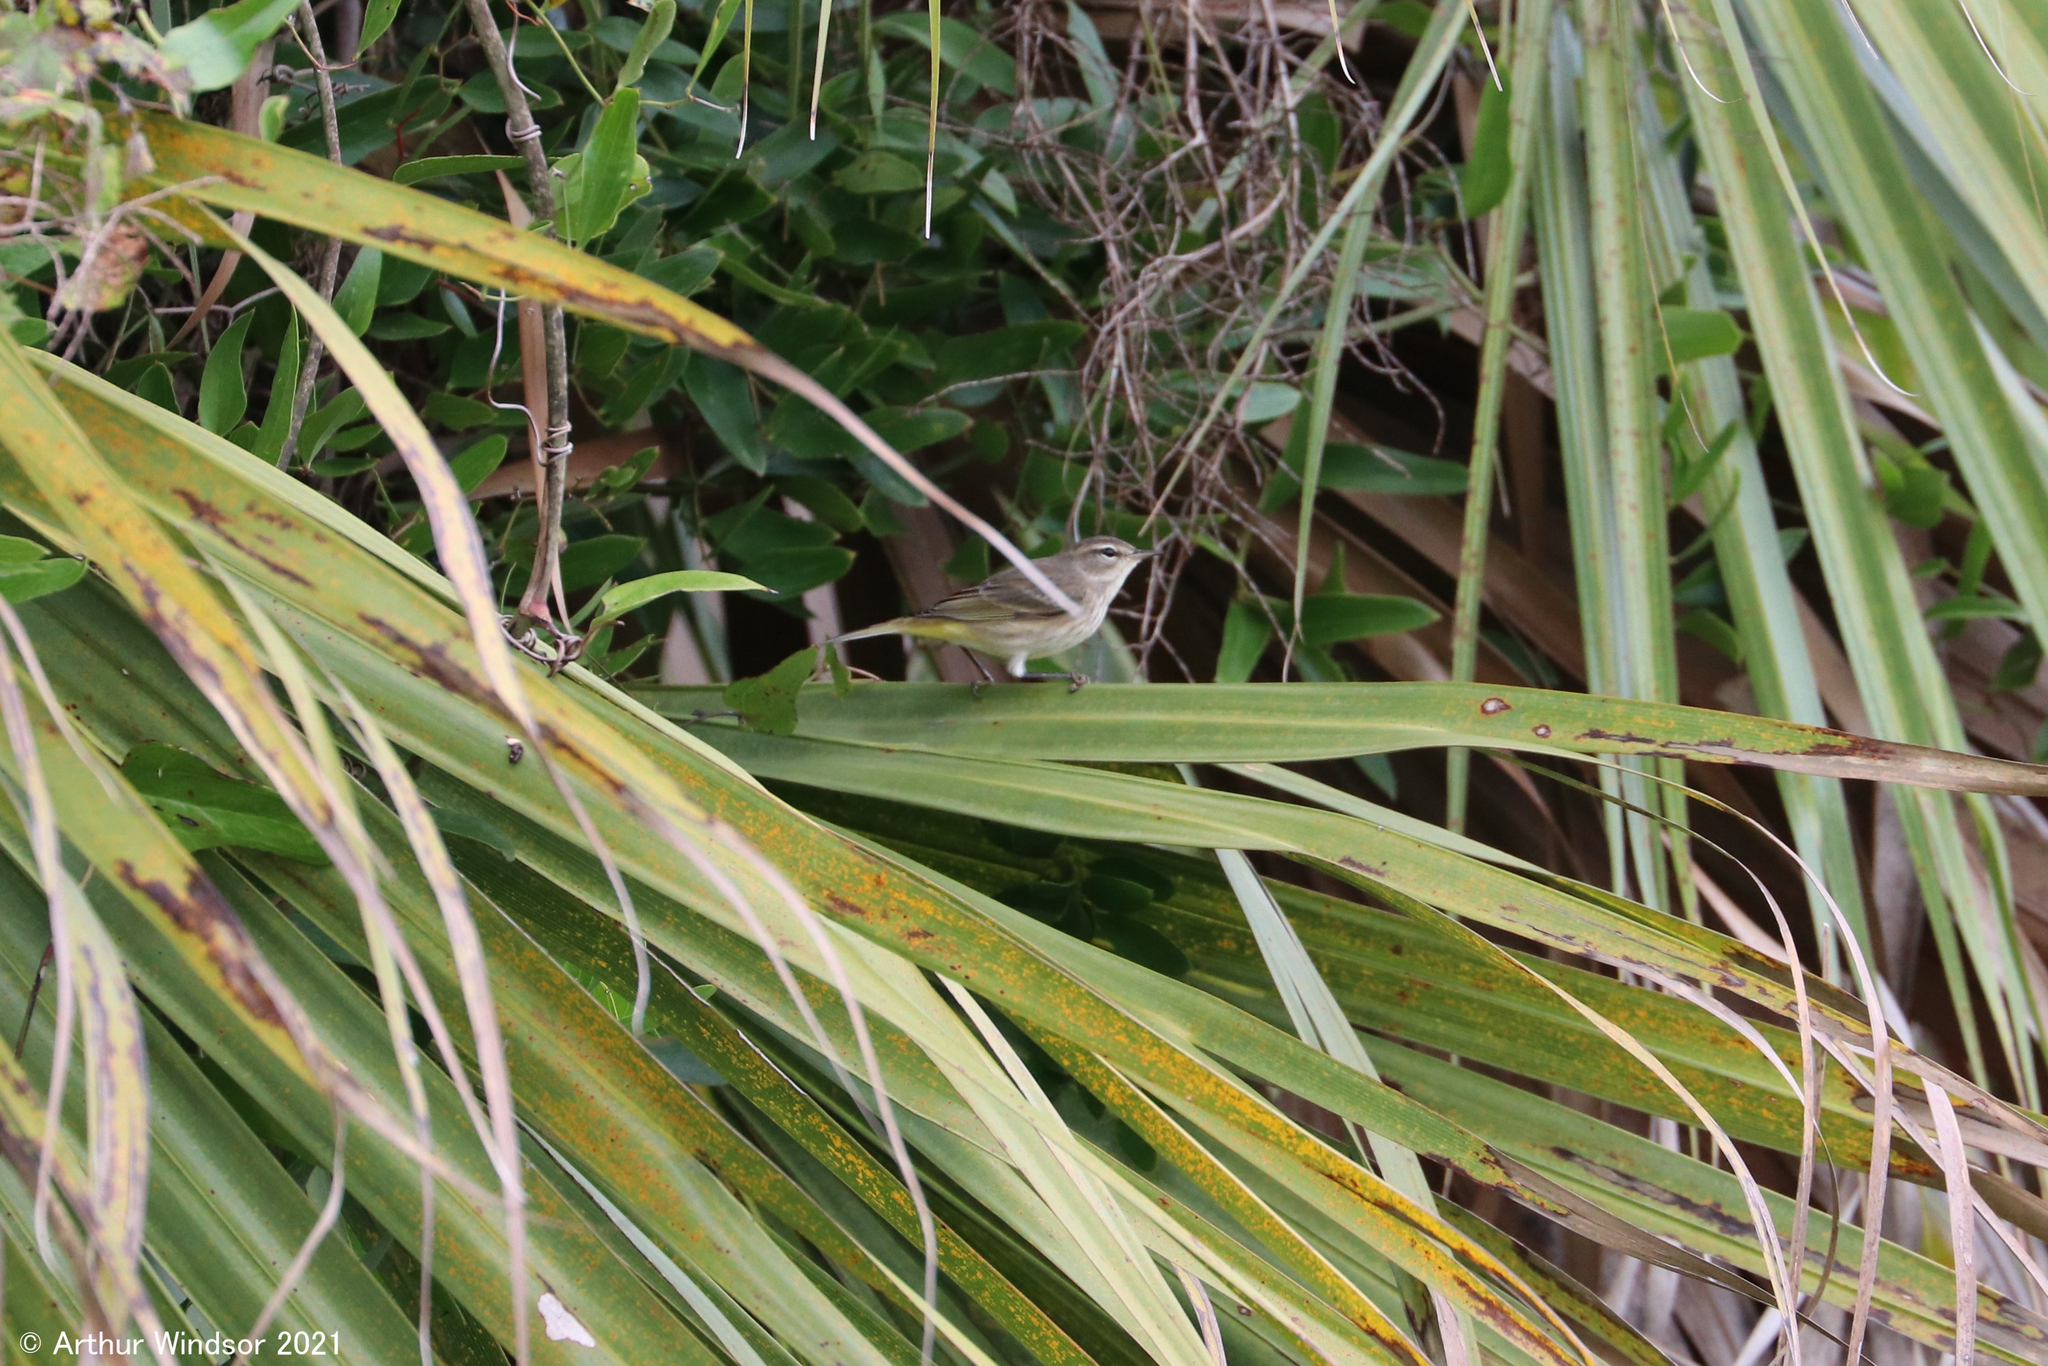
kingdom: Animalia
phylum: Chordata
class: Aves
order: Passeriformes
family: Parulidae
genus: Setophaga
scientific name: Setophaga palmarum
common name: Palm warbler
